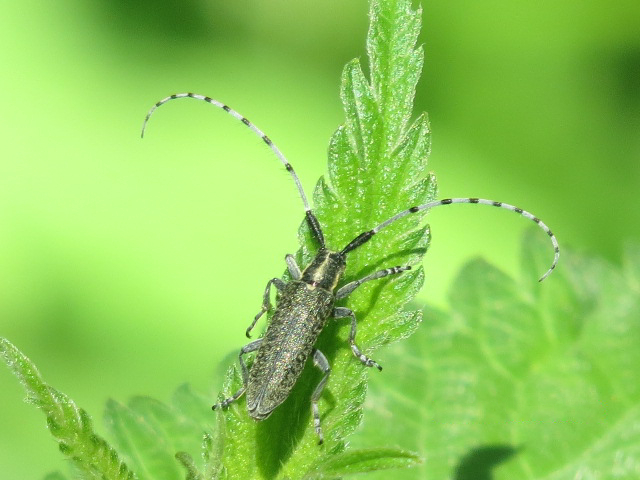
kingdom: Animalia
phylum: Arthropoda
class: Insecta
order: Coleoptera
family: Cerambycidae
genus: Agapanthia
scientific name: Agapanthia villosoviridescens
